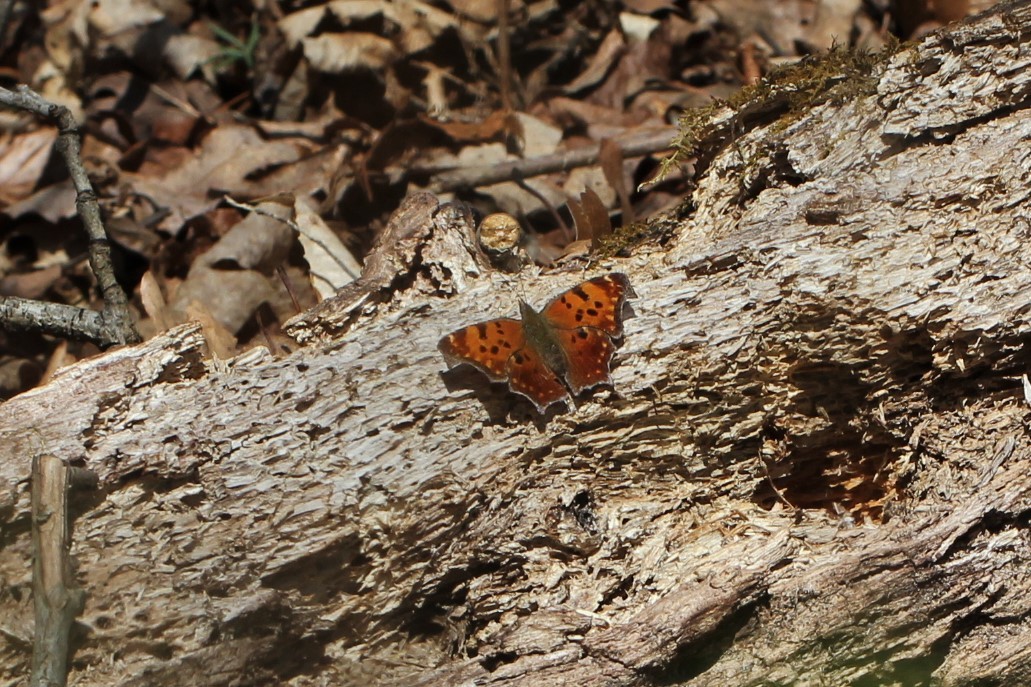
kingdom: Animalia
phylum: Arthropoda
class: Insecta
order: Lepidoptera
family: Nymphalidae
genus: Polygonia
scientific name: Polygonia comma
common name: Eastern comma
